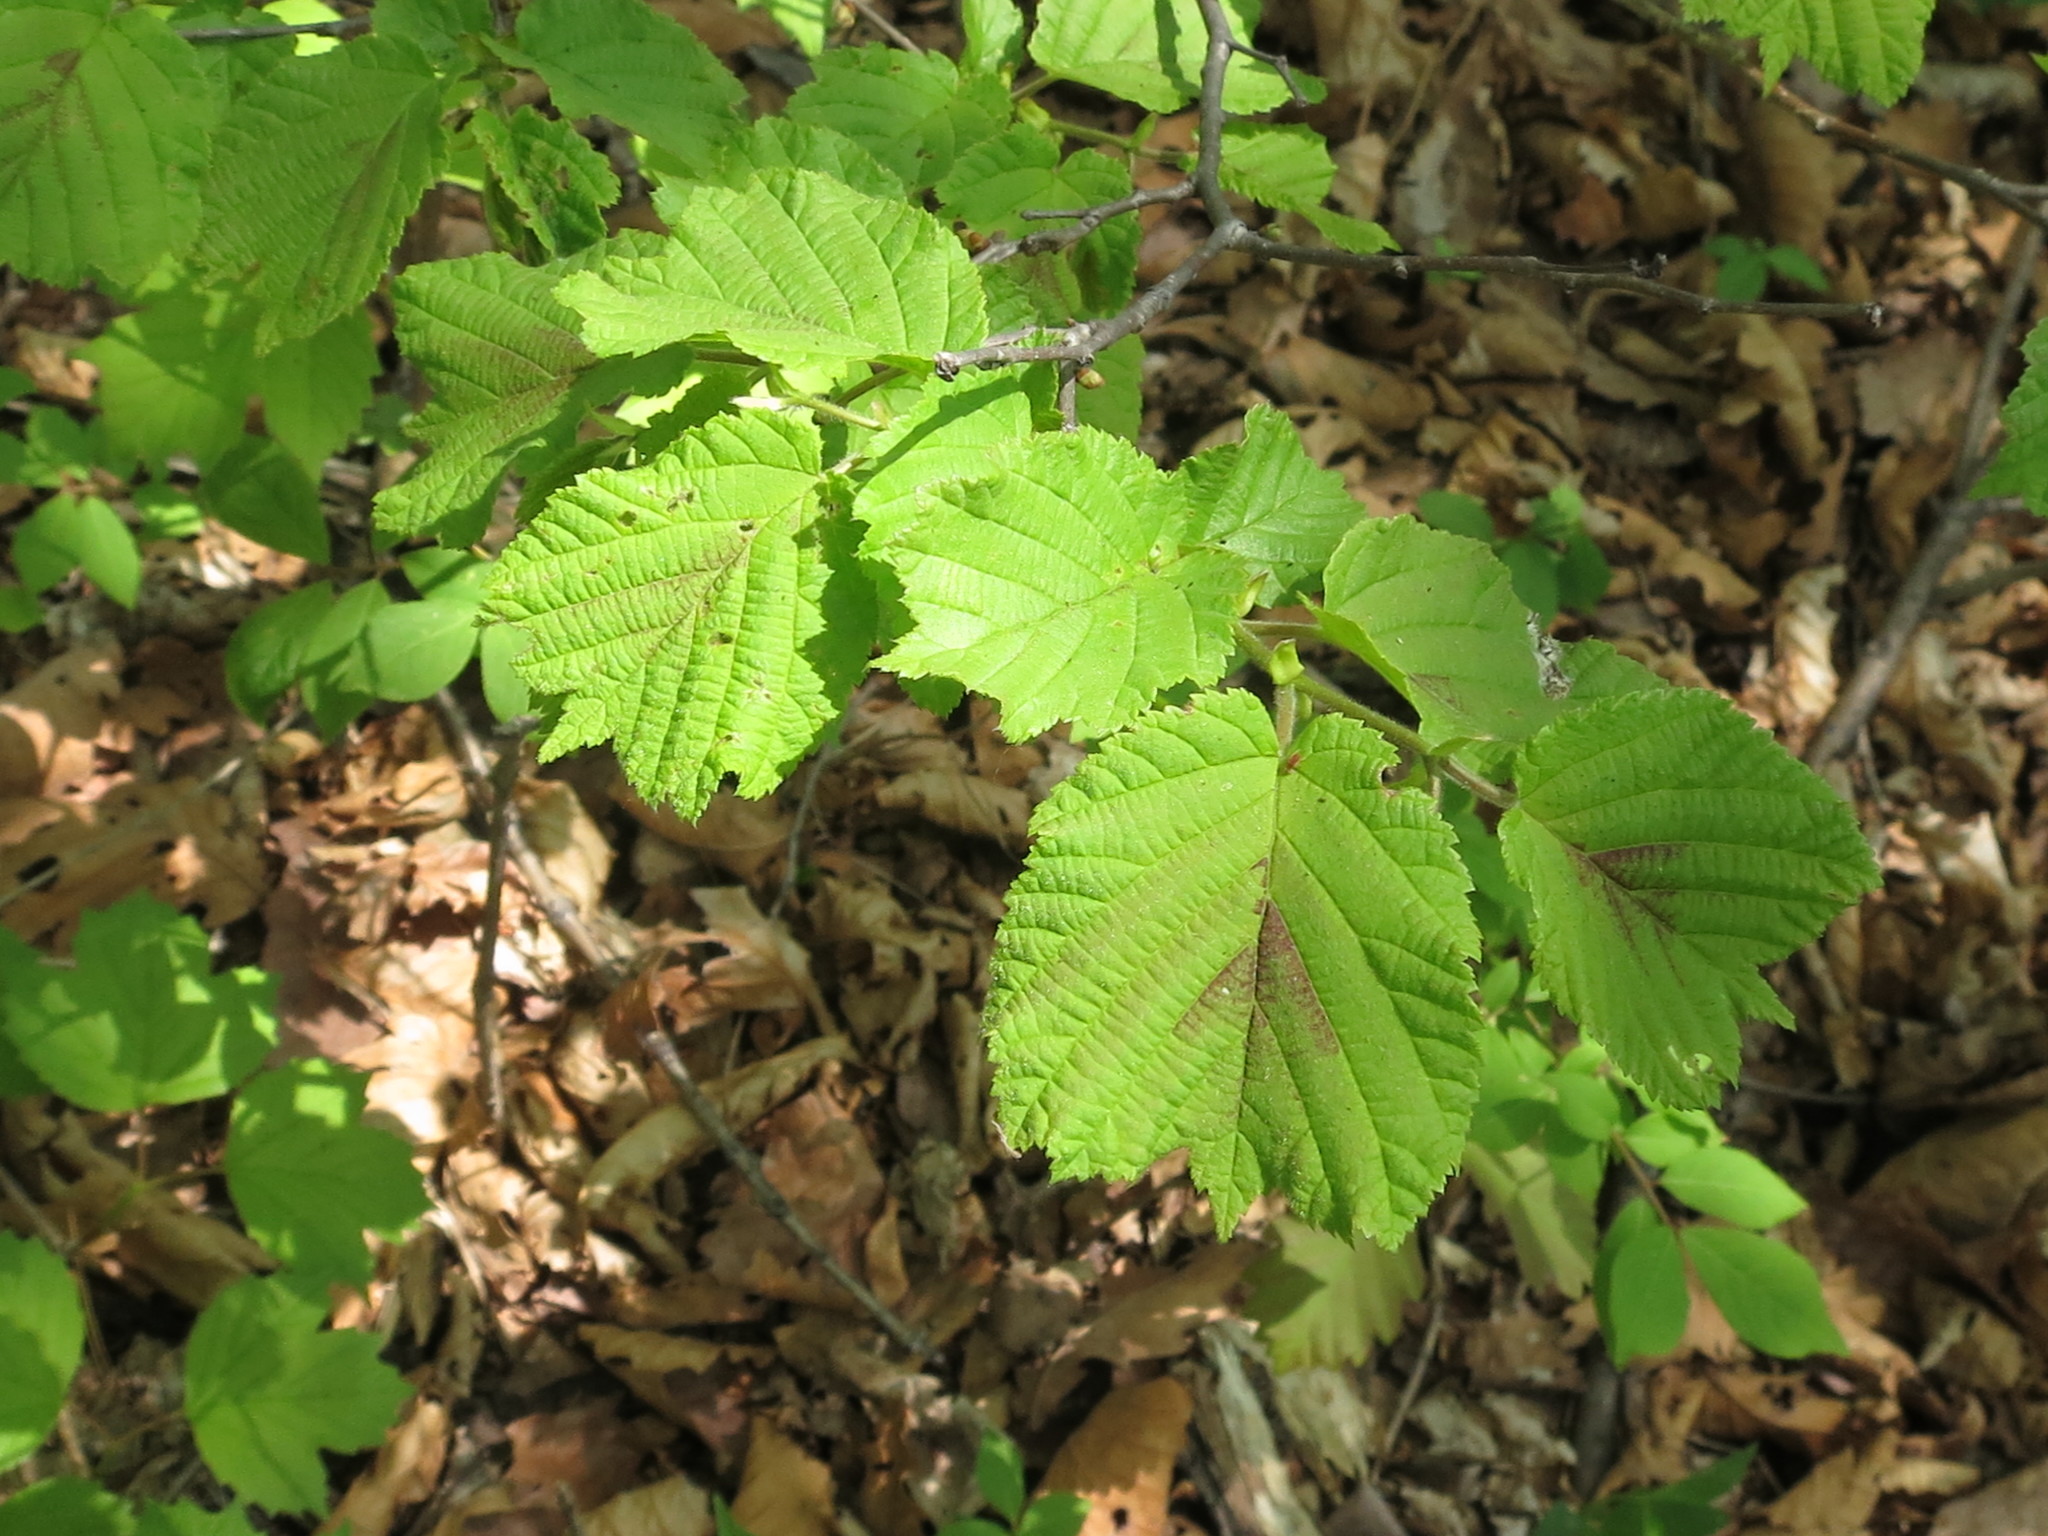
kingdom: Plantae
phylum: Tracheophyta
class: Magnoliopsida
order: Fagales
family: Betulaceae
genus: Corylus
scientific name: Corylus heterophylla
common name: Siberian hazelnut
